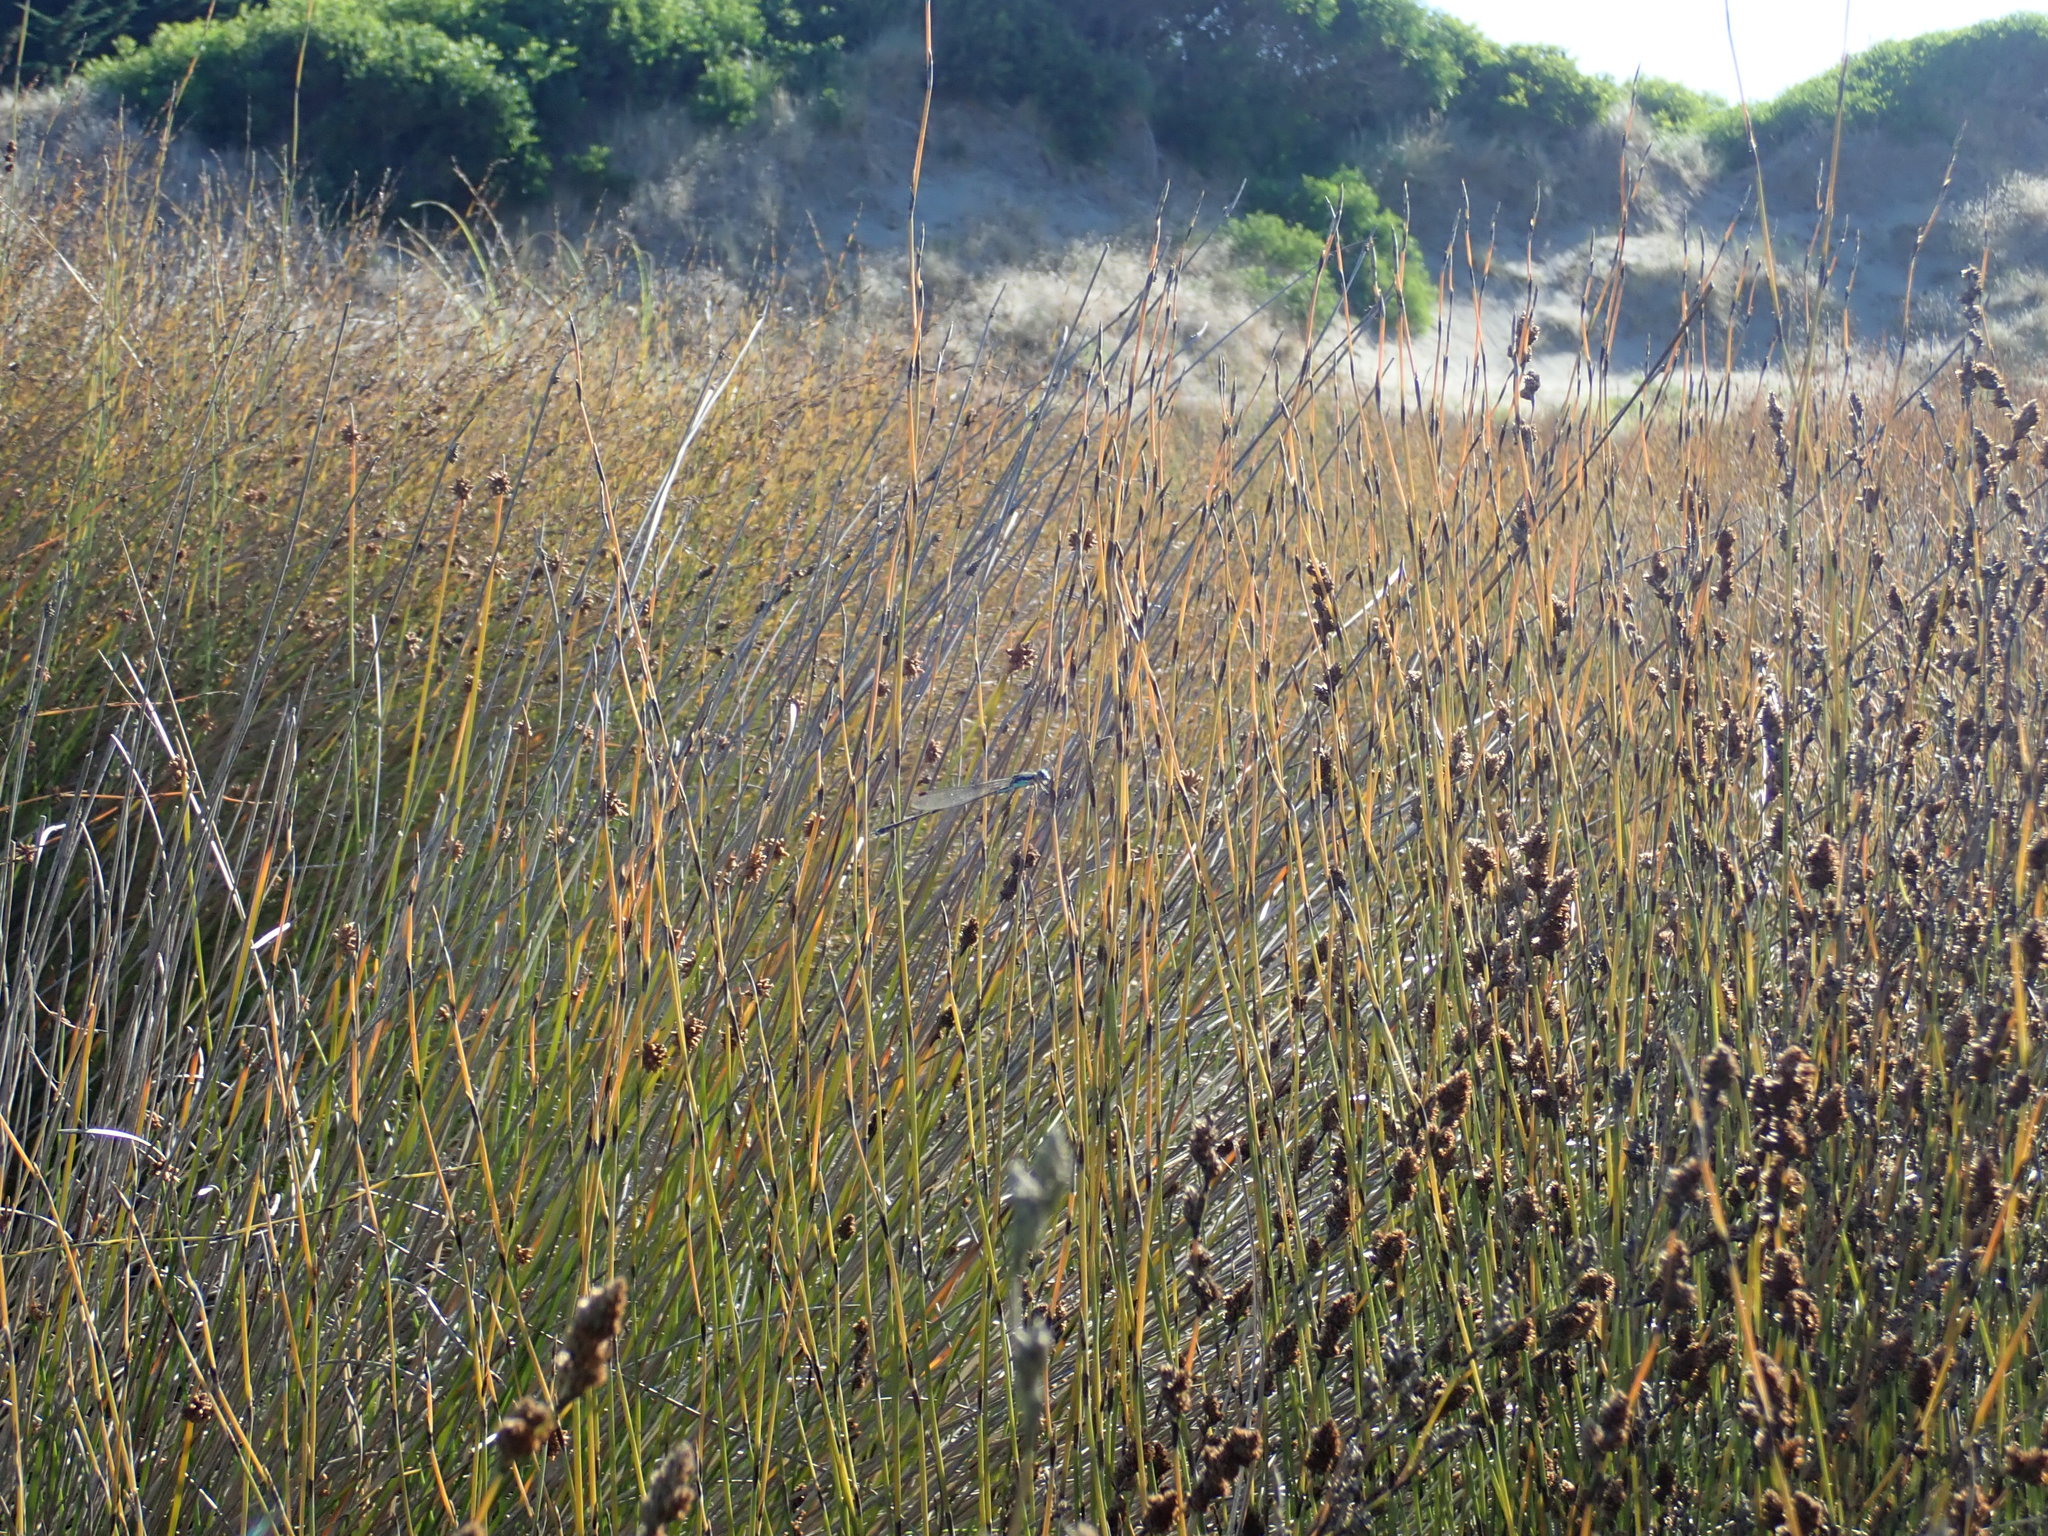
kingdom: Animalia
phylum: Arthropoda
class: Insecta
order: Odonata
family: Lestidae
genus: Austrolestes
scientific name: Austrolestes colensonis
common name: Blue damselfly
